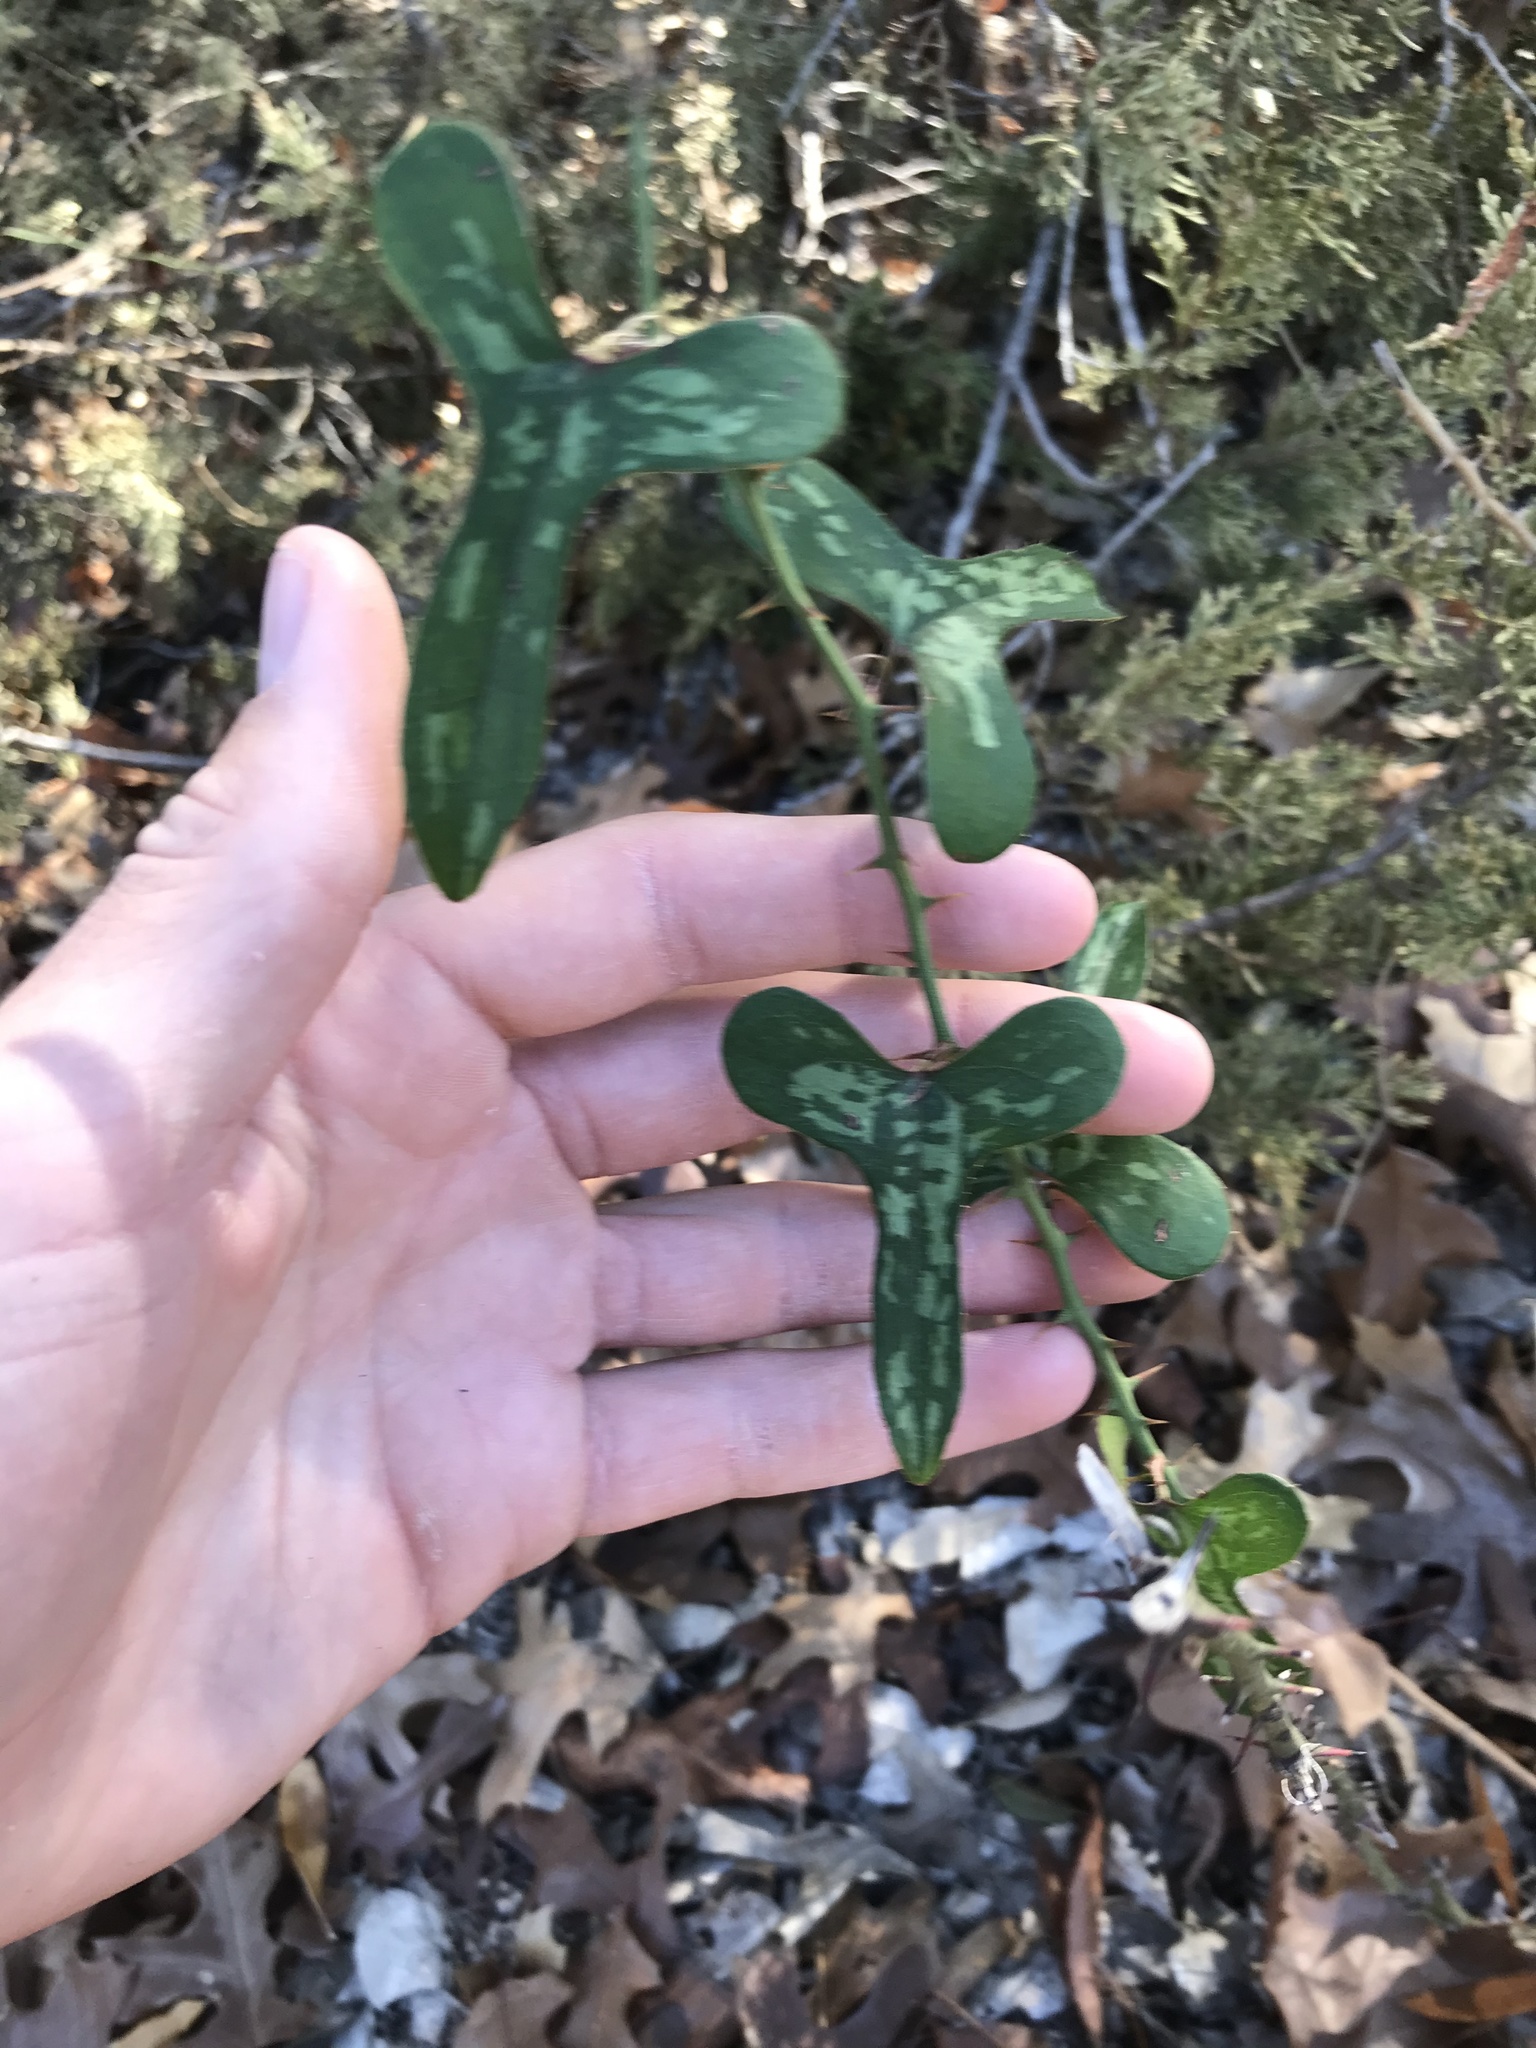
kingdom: Plantae
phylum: Tracheophyta
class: Liliopsida
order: Liliales
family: Smilacaceae
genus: Smilax
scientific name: Smilax bona-nox
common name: Catbrier
